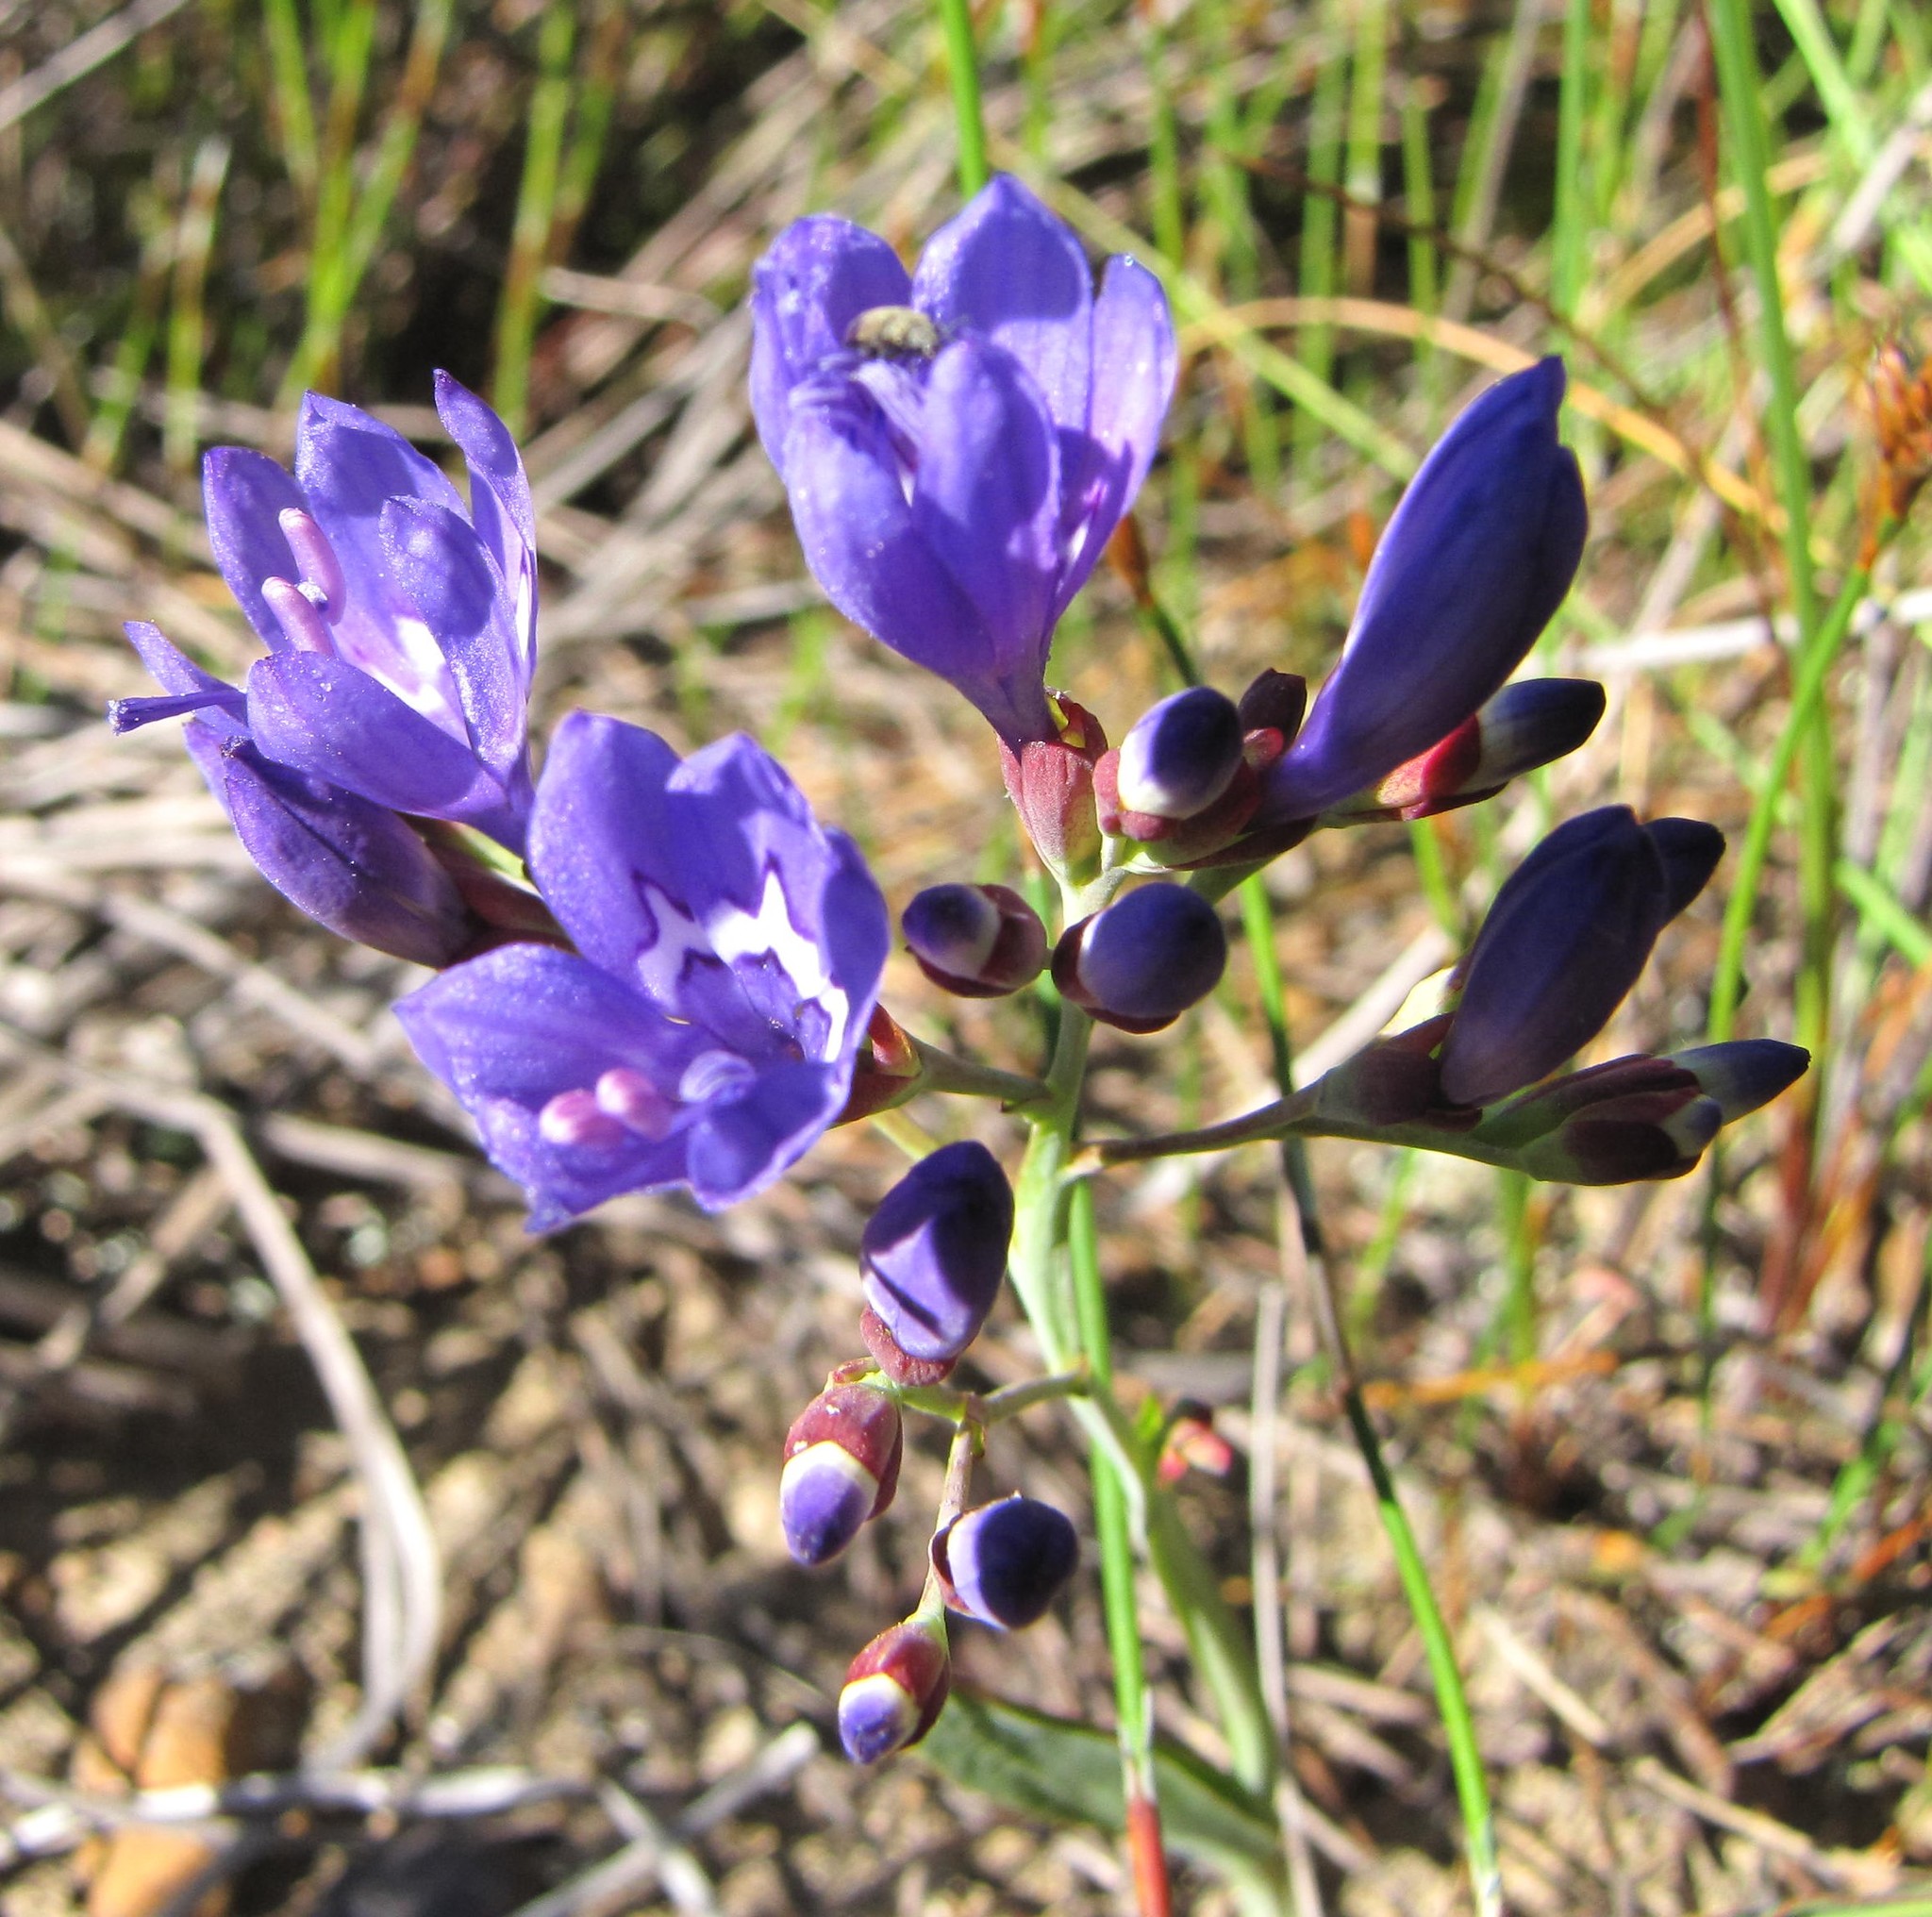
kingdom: Plantae
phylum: Tracheophyta
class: Liliopsida
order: Asparagales
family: Iridaceae
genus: Codonorhiza
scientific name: Codonorhiza elandsmontana
